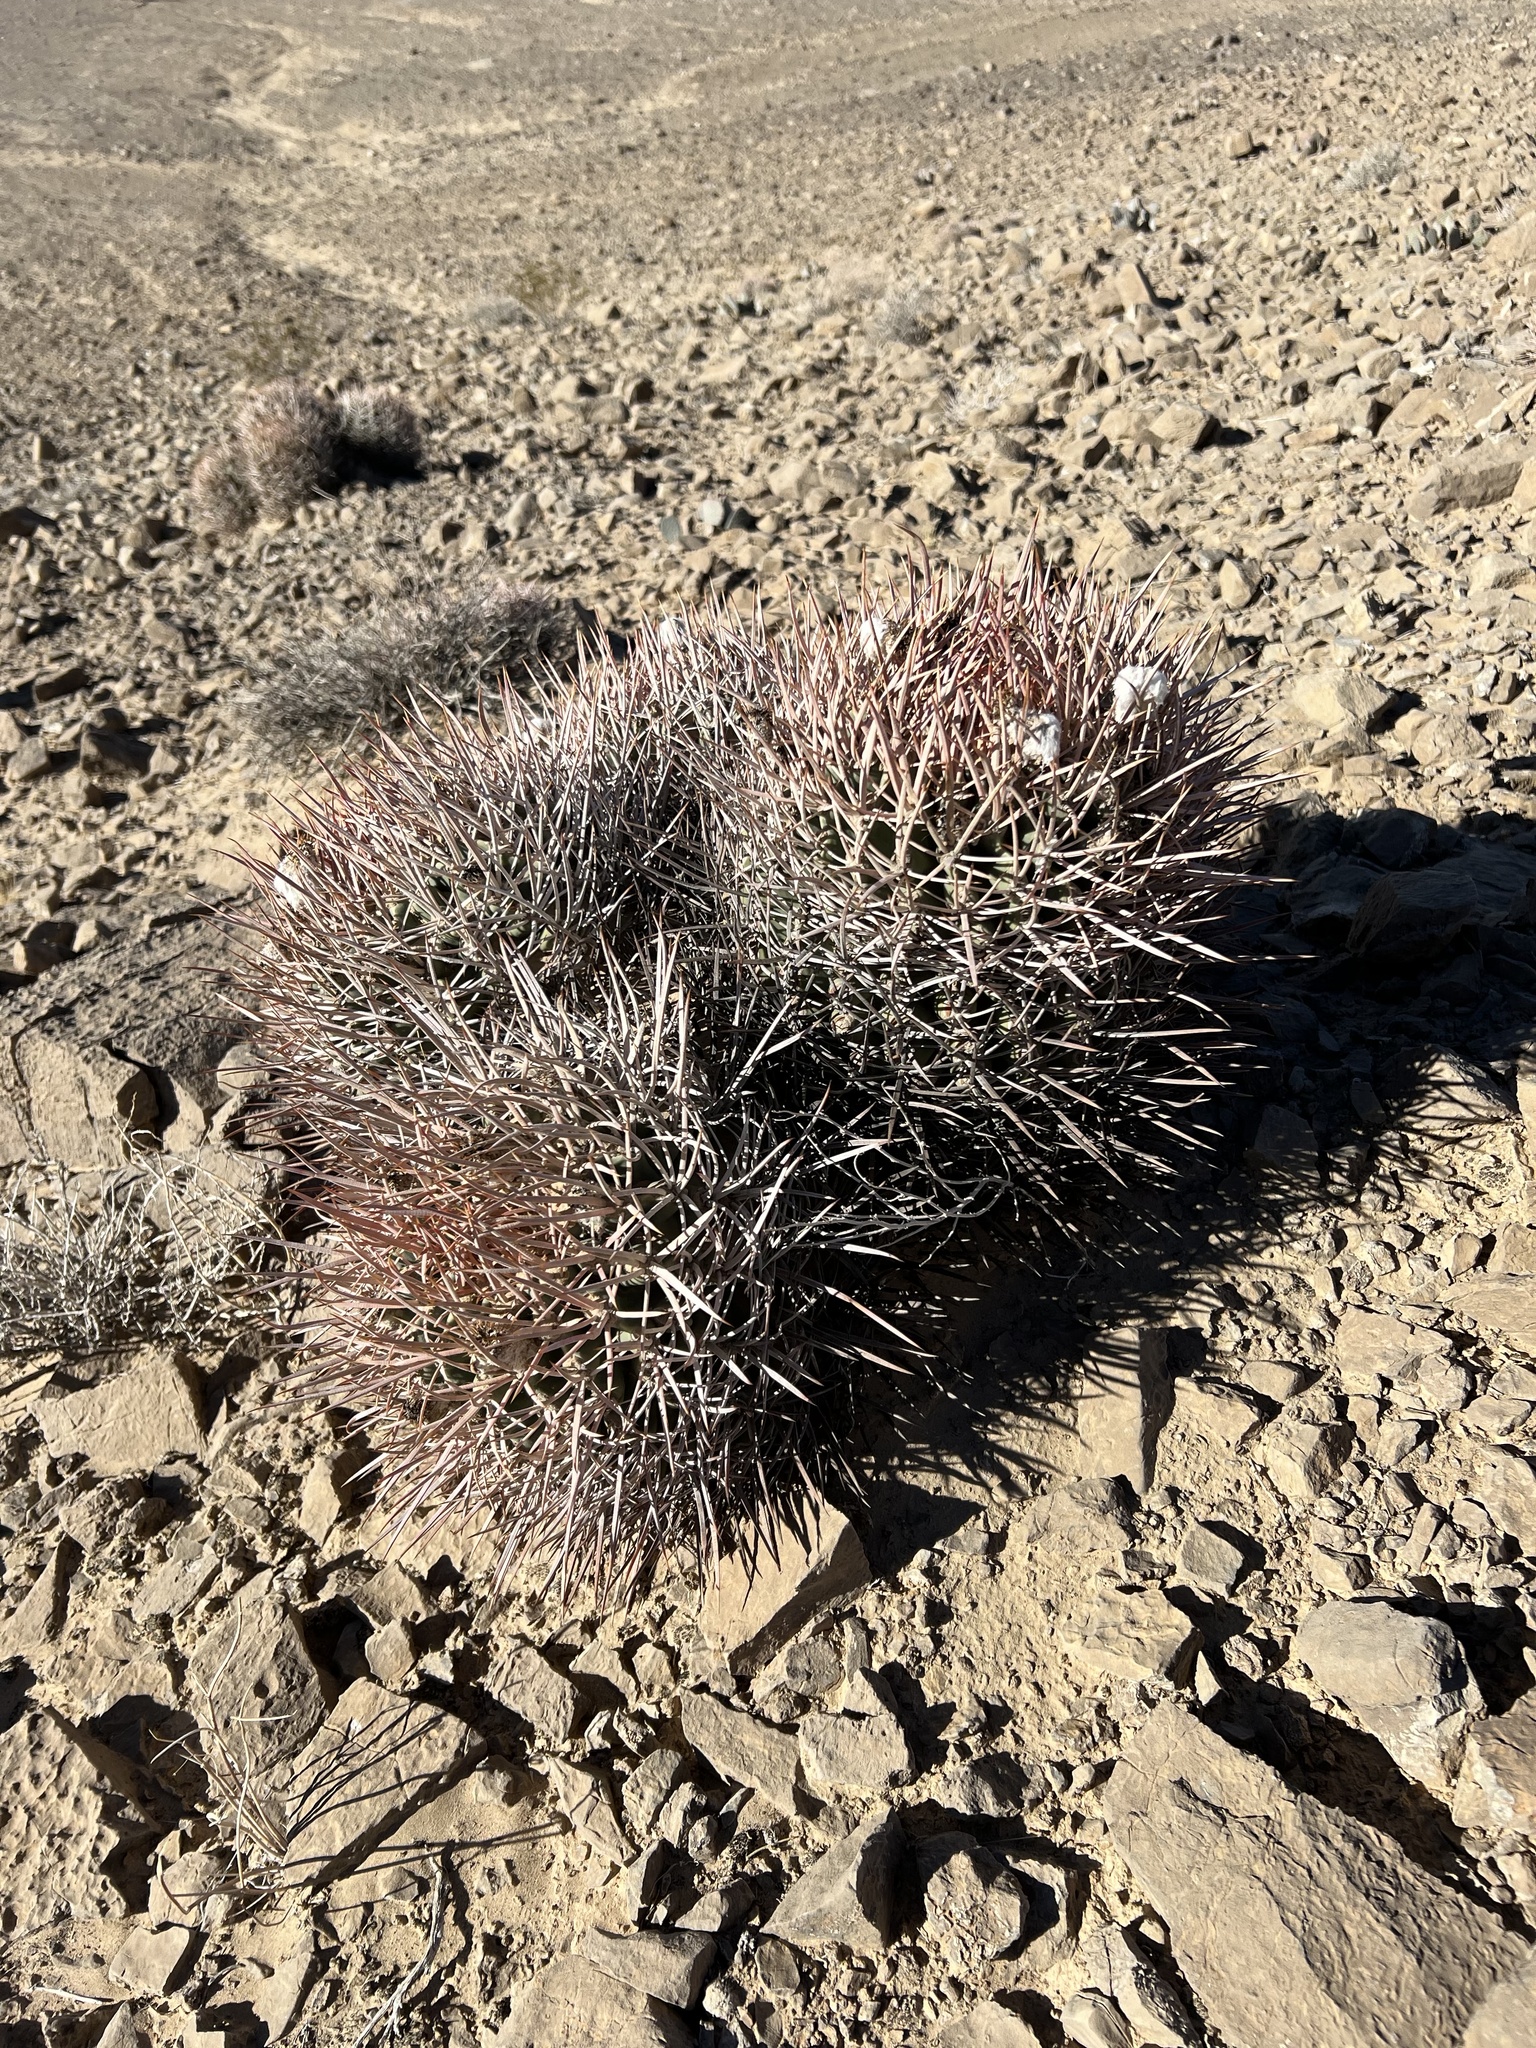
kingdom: Plantae
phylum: Tracheophyta
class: Magnoliopsida
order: Caryophyllales
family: Cactaceae
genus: Echinocactus
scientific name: Echinocactus polycephalus
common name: Cottontop cactus
